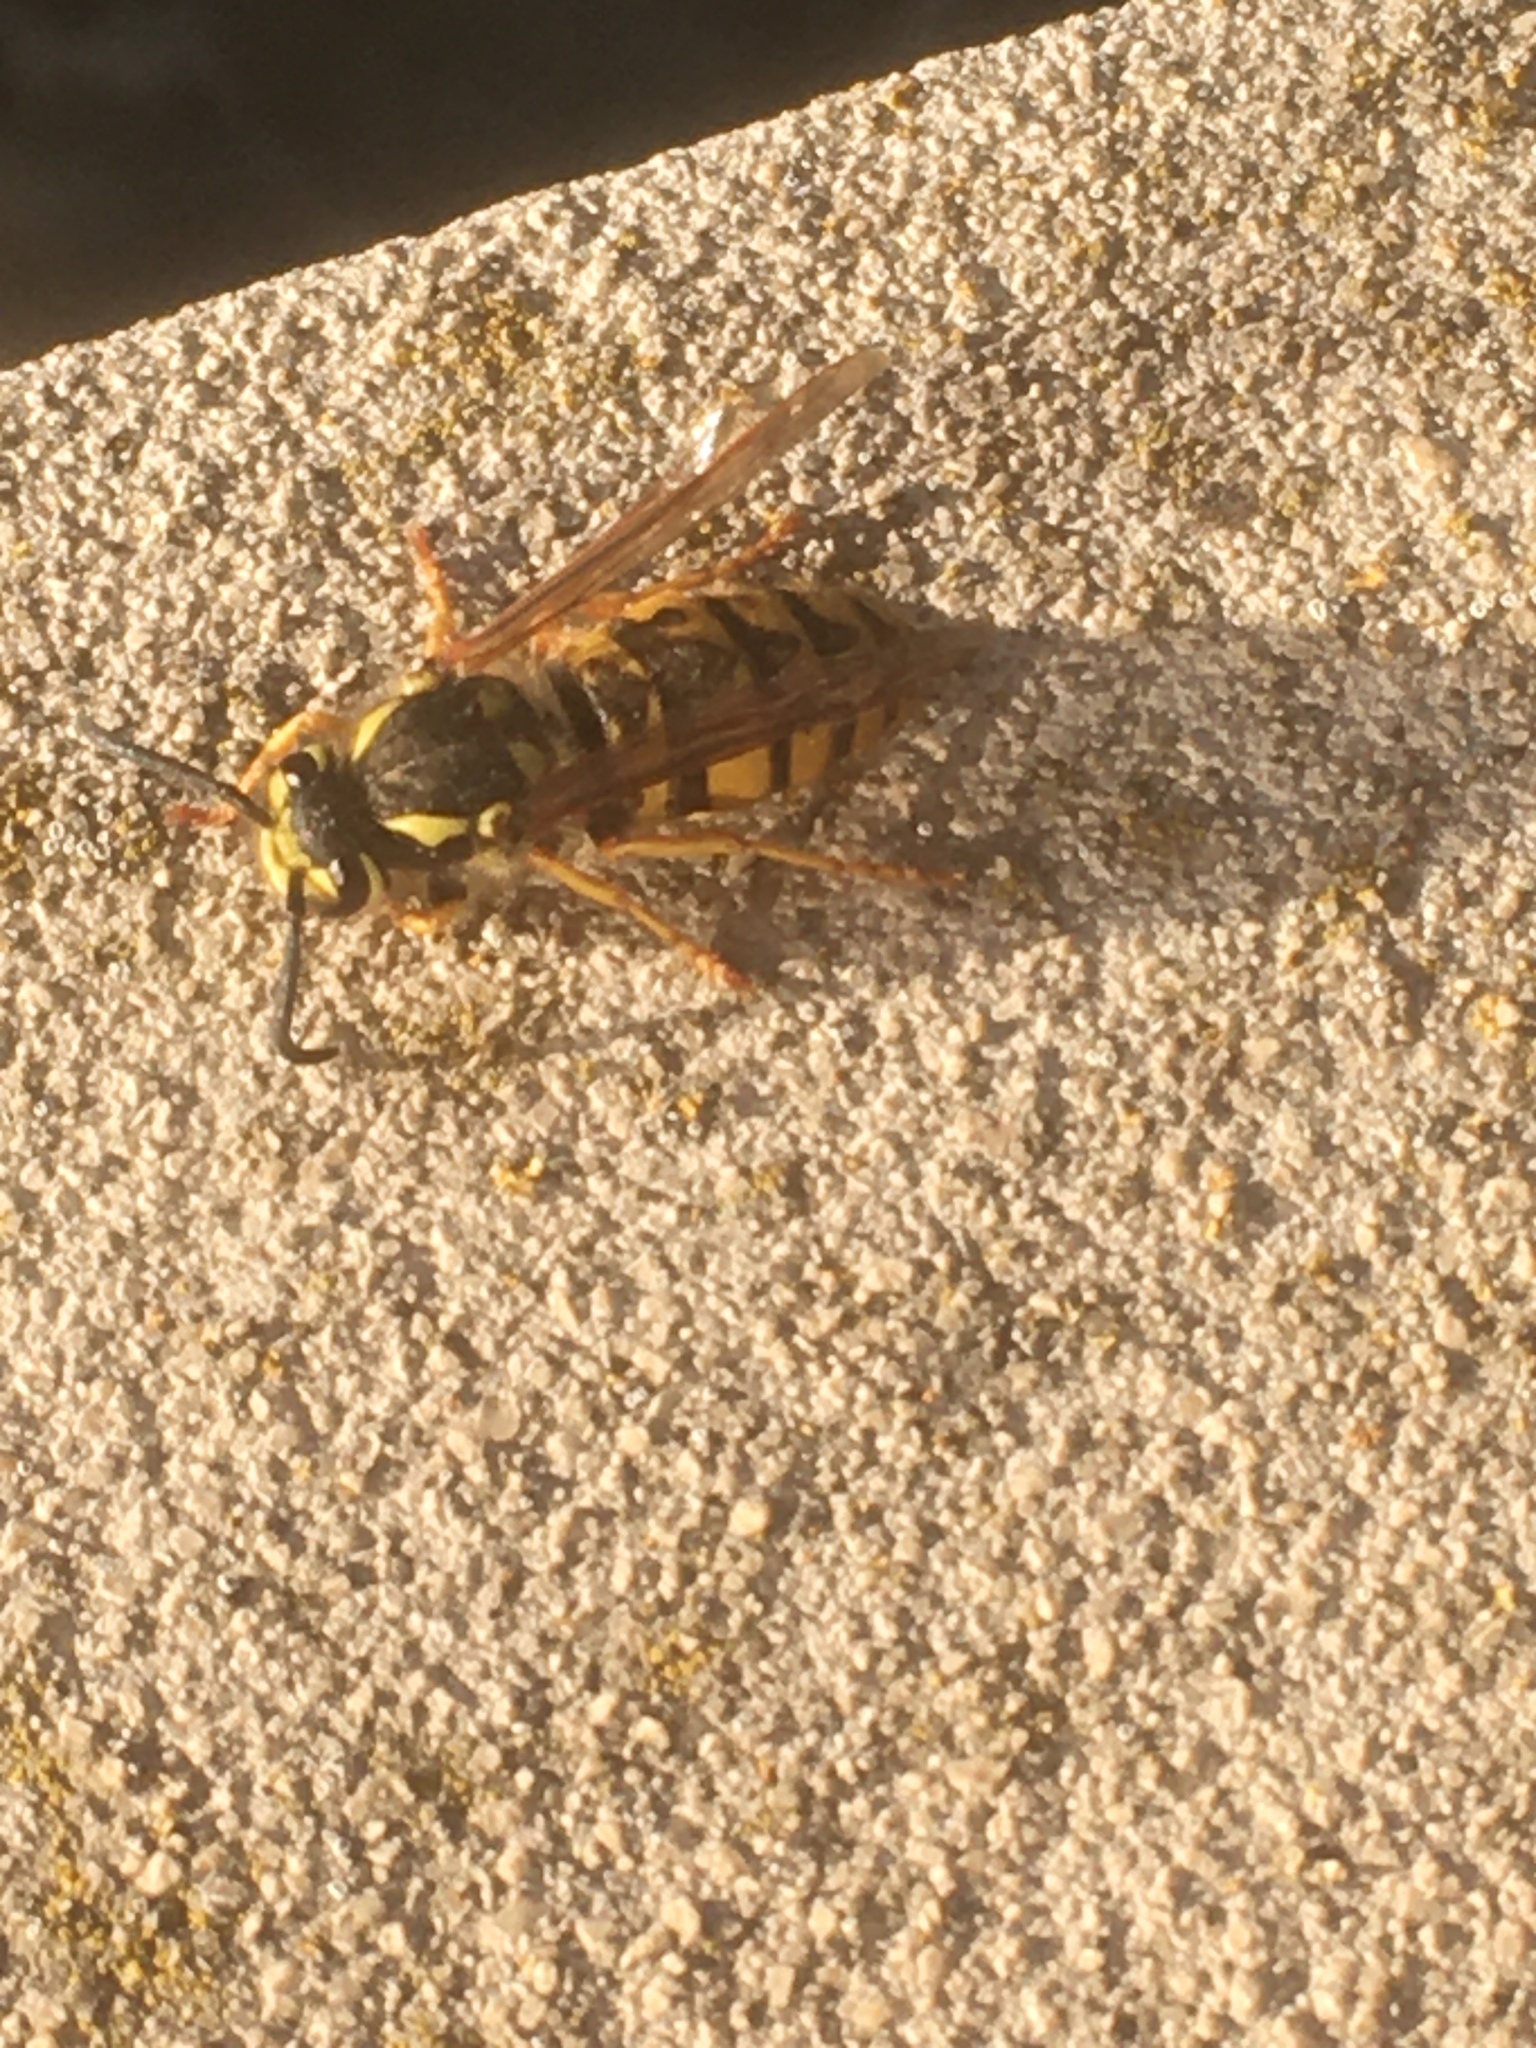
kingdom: Animalia
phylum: Arthropoda
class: Insecta
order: Hymenoptera
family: Vespidae
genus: Vespula
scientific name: Vespula germanica
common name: German wasp
